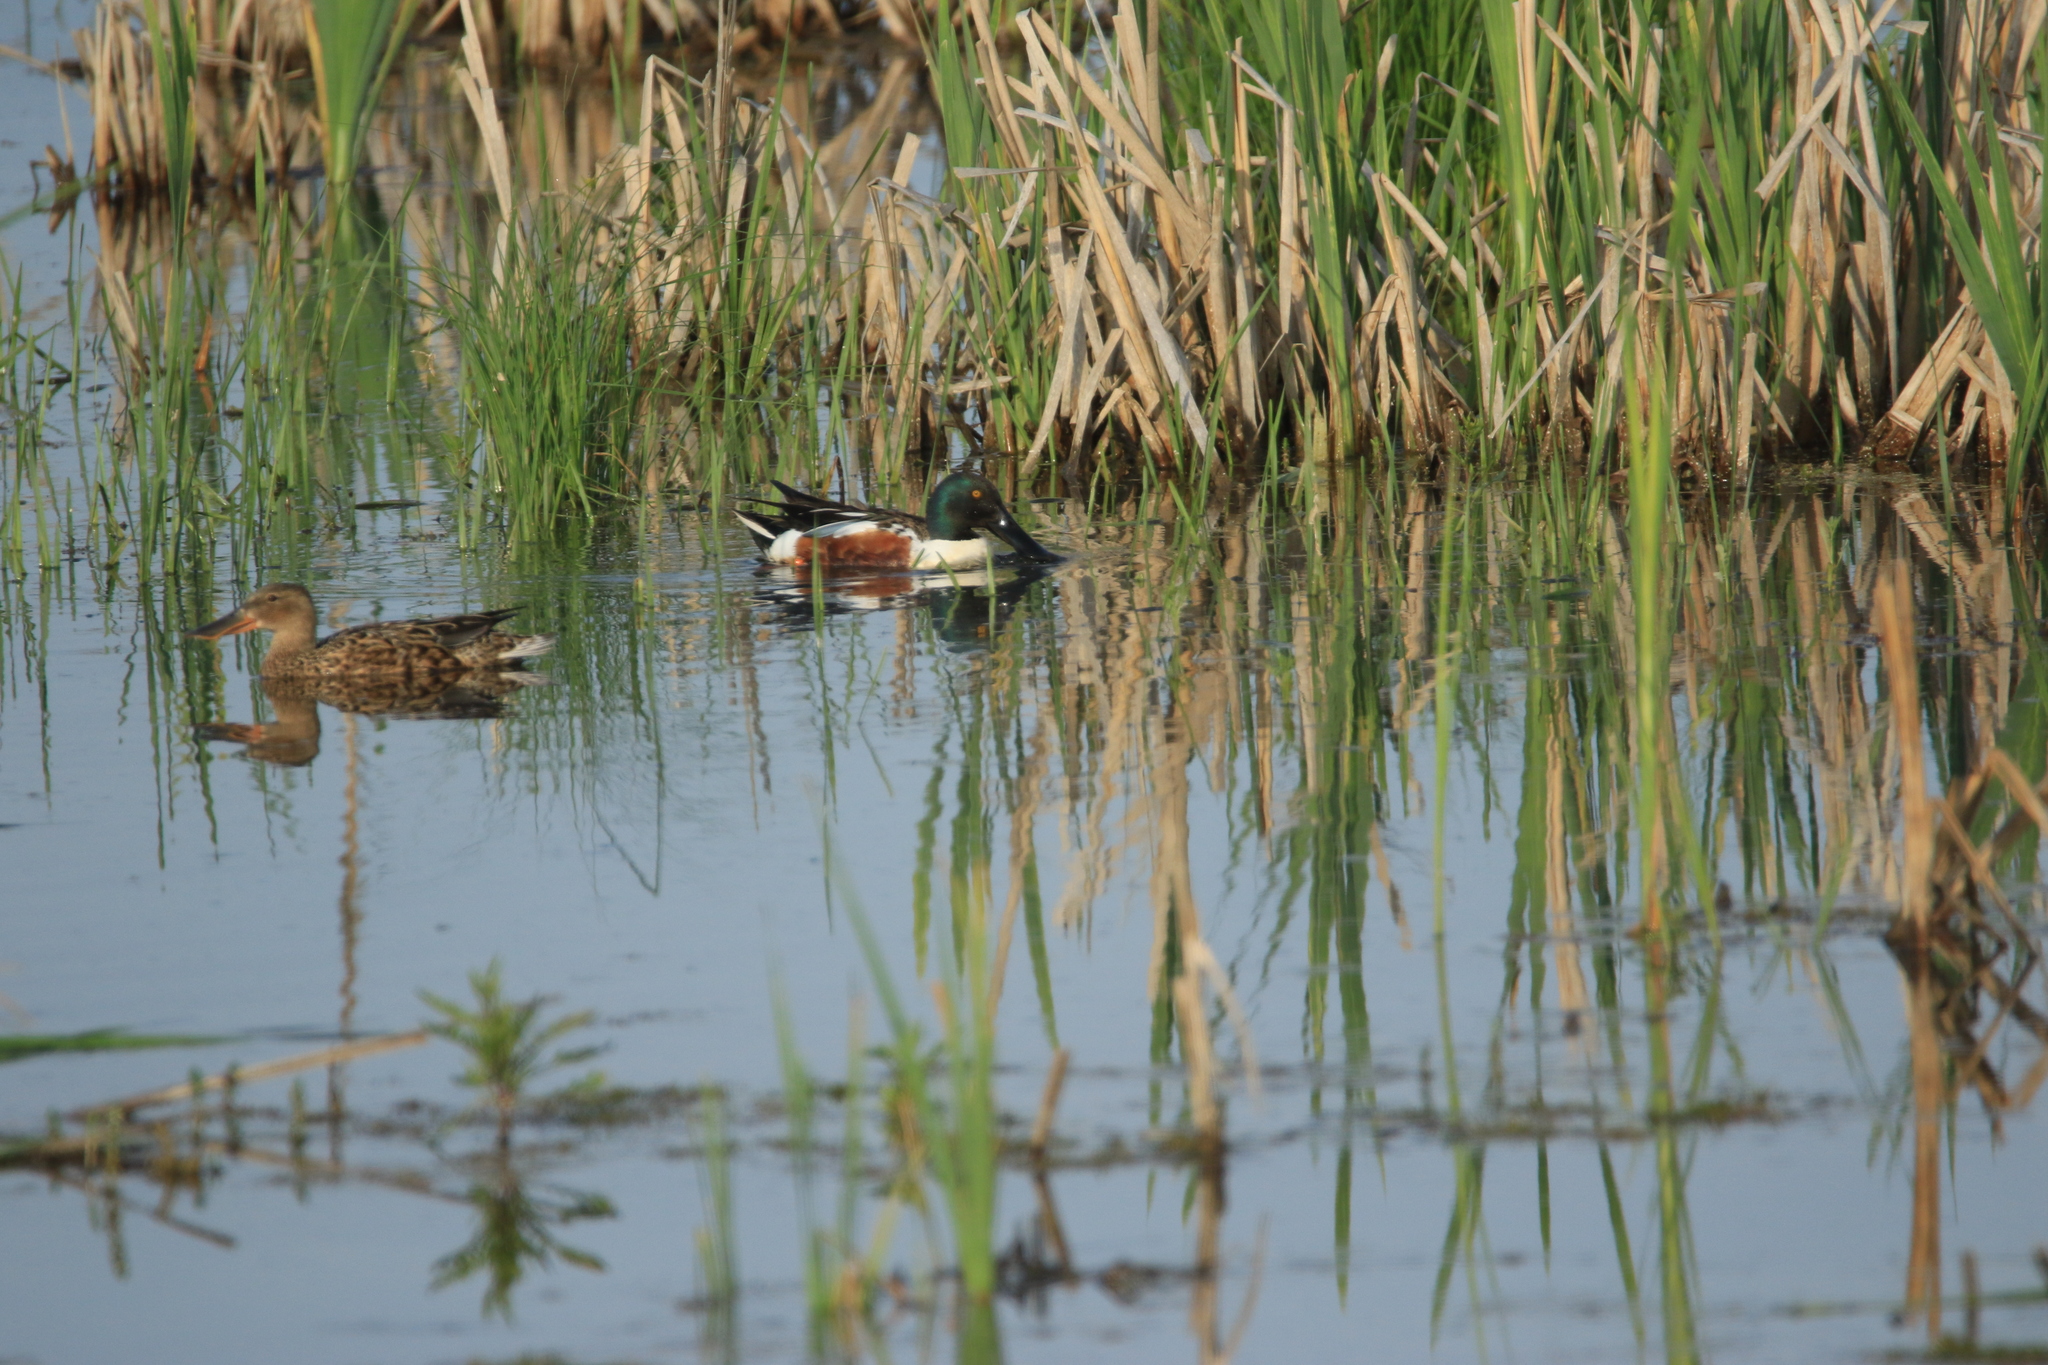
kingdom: Animalia
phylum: Chordata
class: Aves
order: Anseriformes
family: Anatidae
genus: Spatula
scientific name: Spatula clypeata
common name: Northern shoveler
